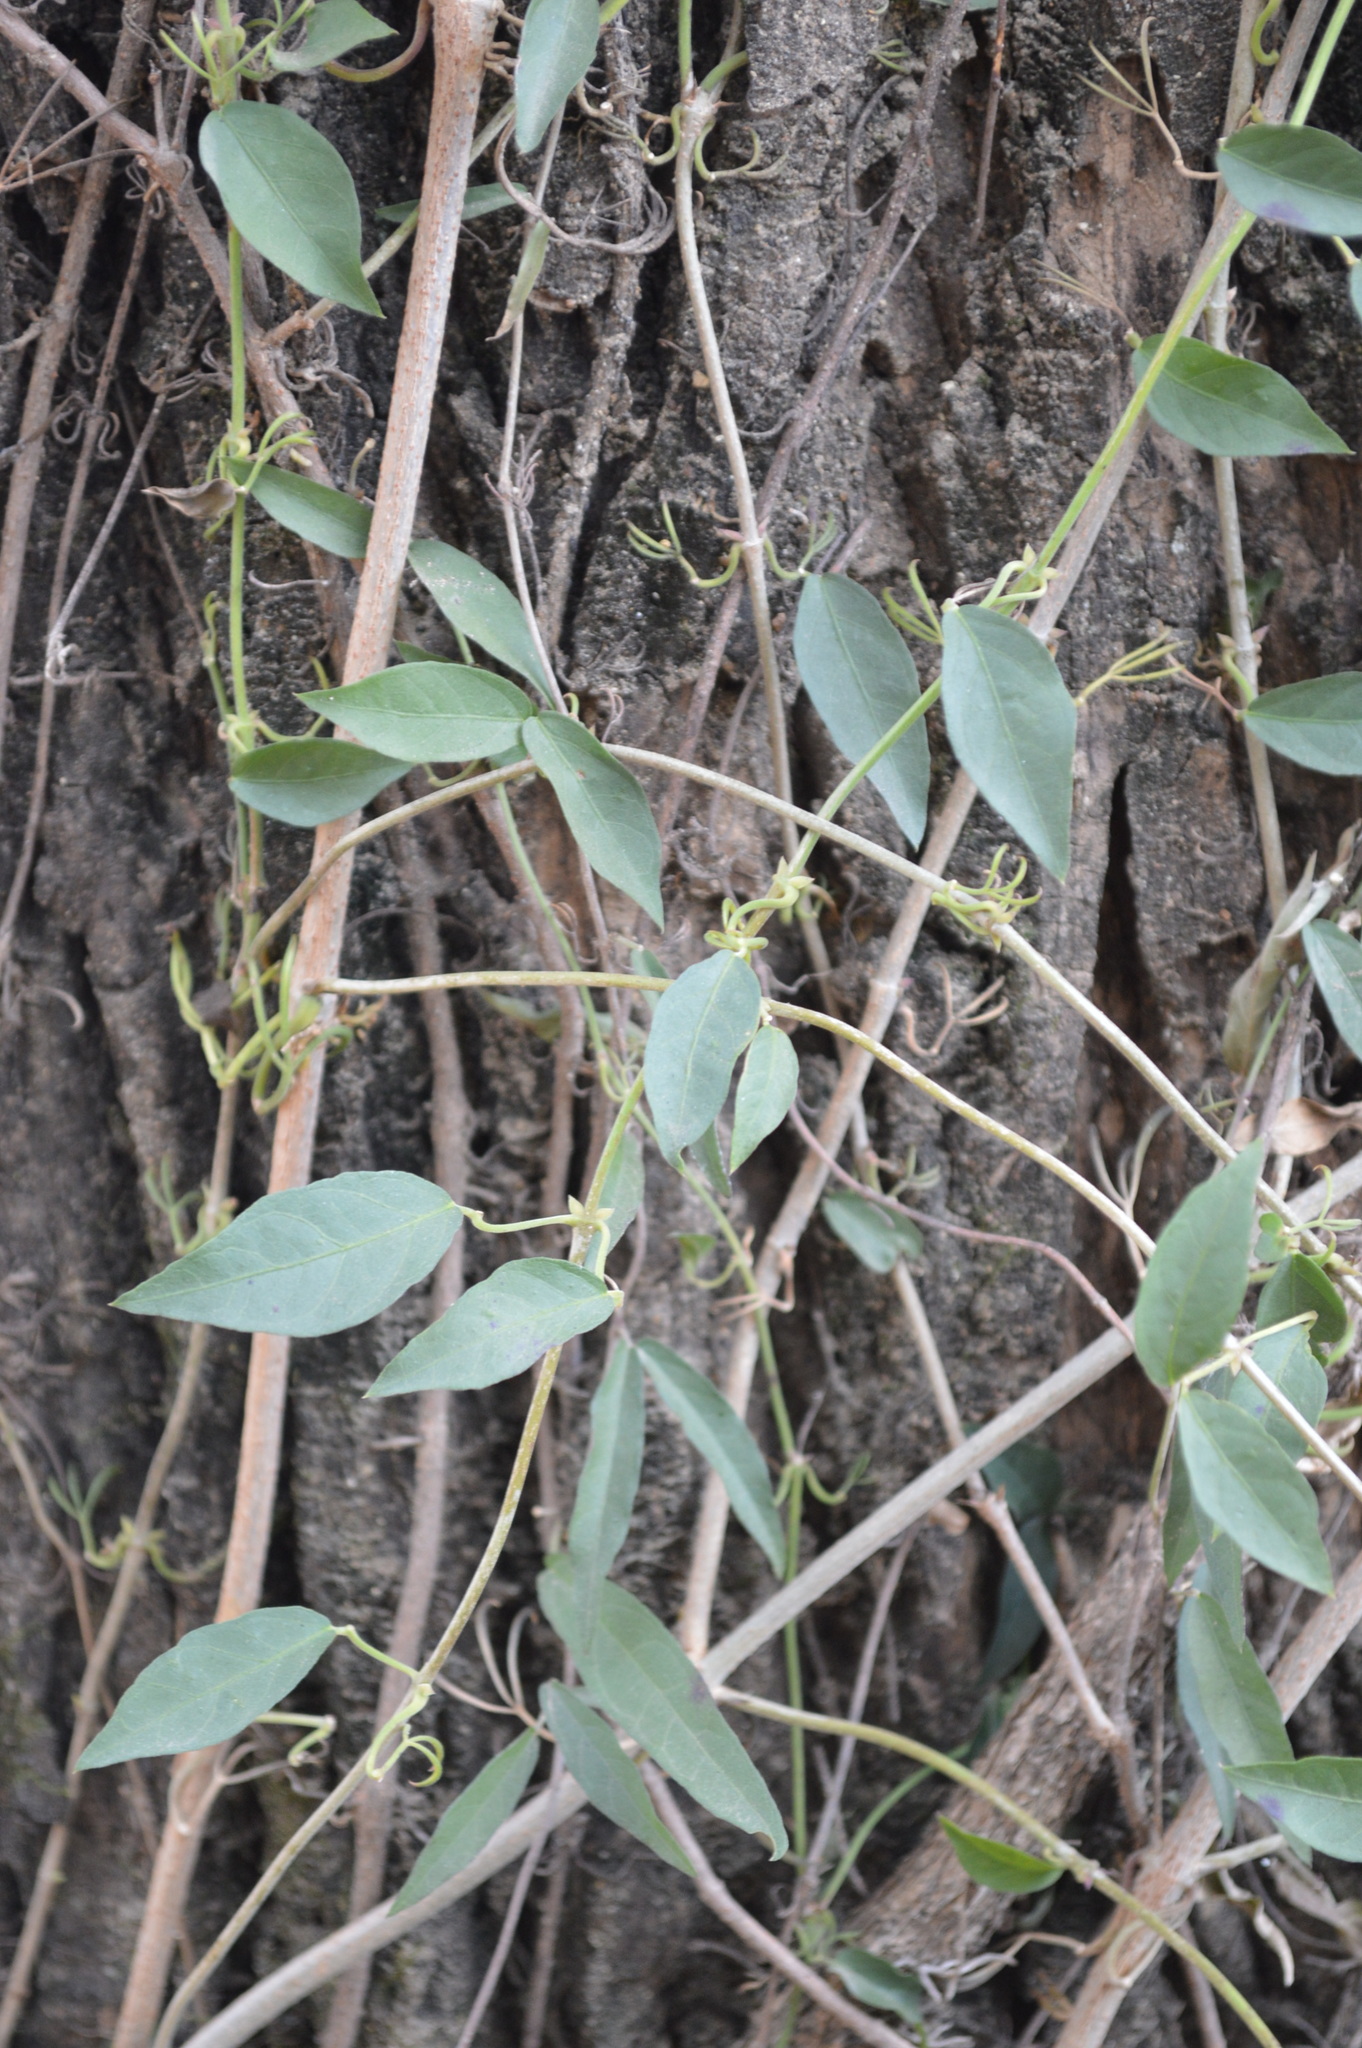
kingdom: Plantae
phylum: Tracheophyta
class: Magnoliopsida
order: Lamiales
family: Bignoniaceae
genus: Dolichandra
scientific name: Dolichandra unguis-cati
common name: Catclaw vine
